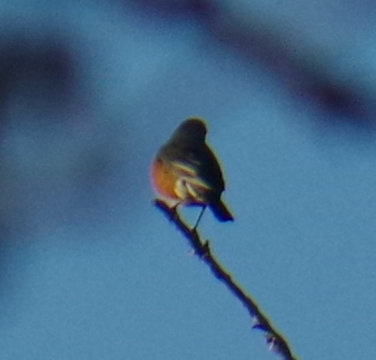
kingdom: Animalia
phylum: Chordata
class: Aves
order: Passeriformes
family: Turdidae
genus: Turdus
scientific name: Turdus migratorius
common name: American robin
